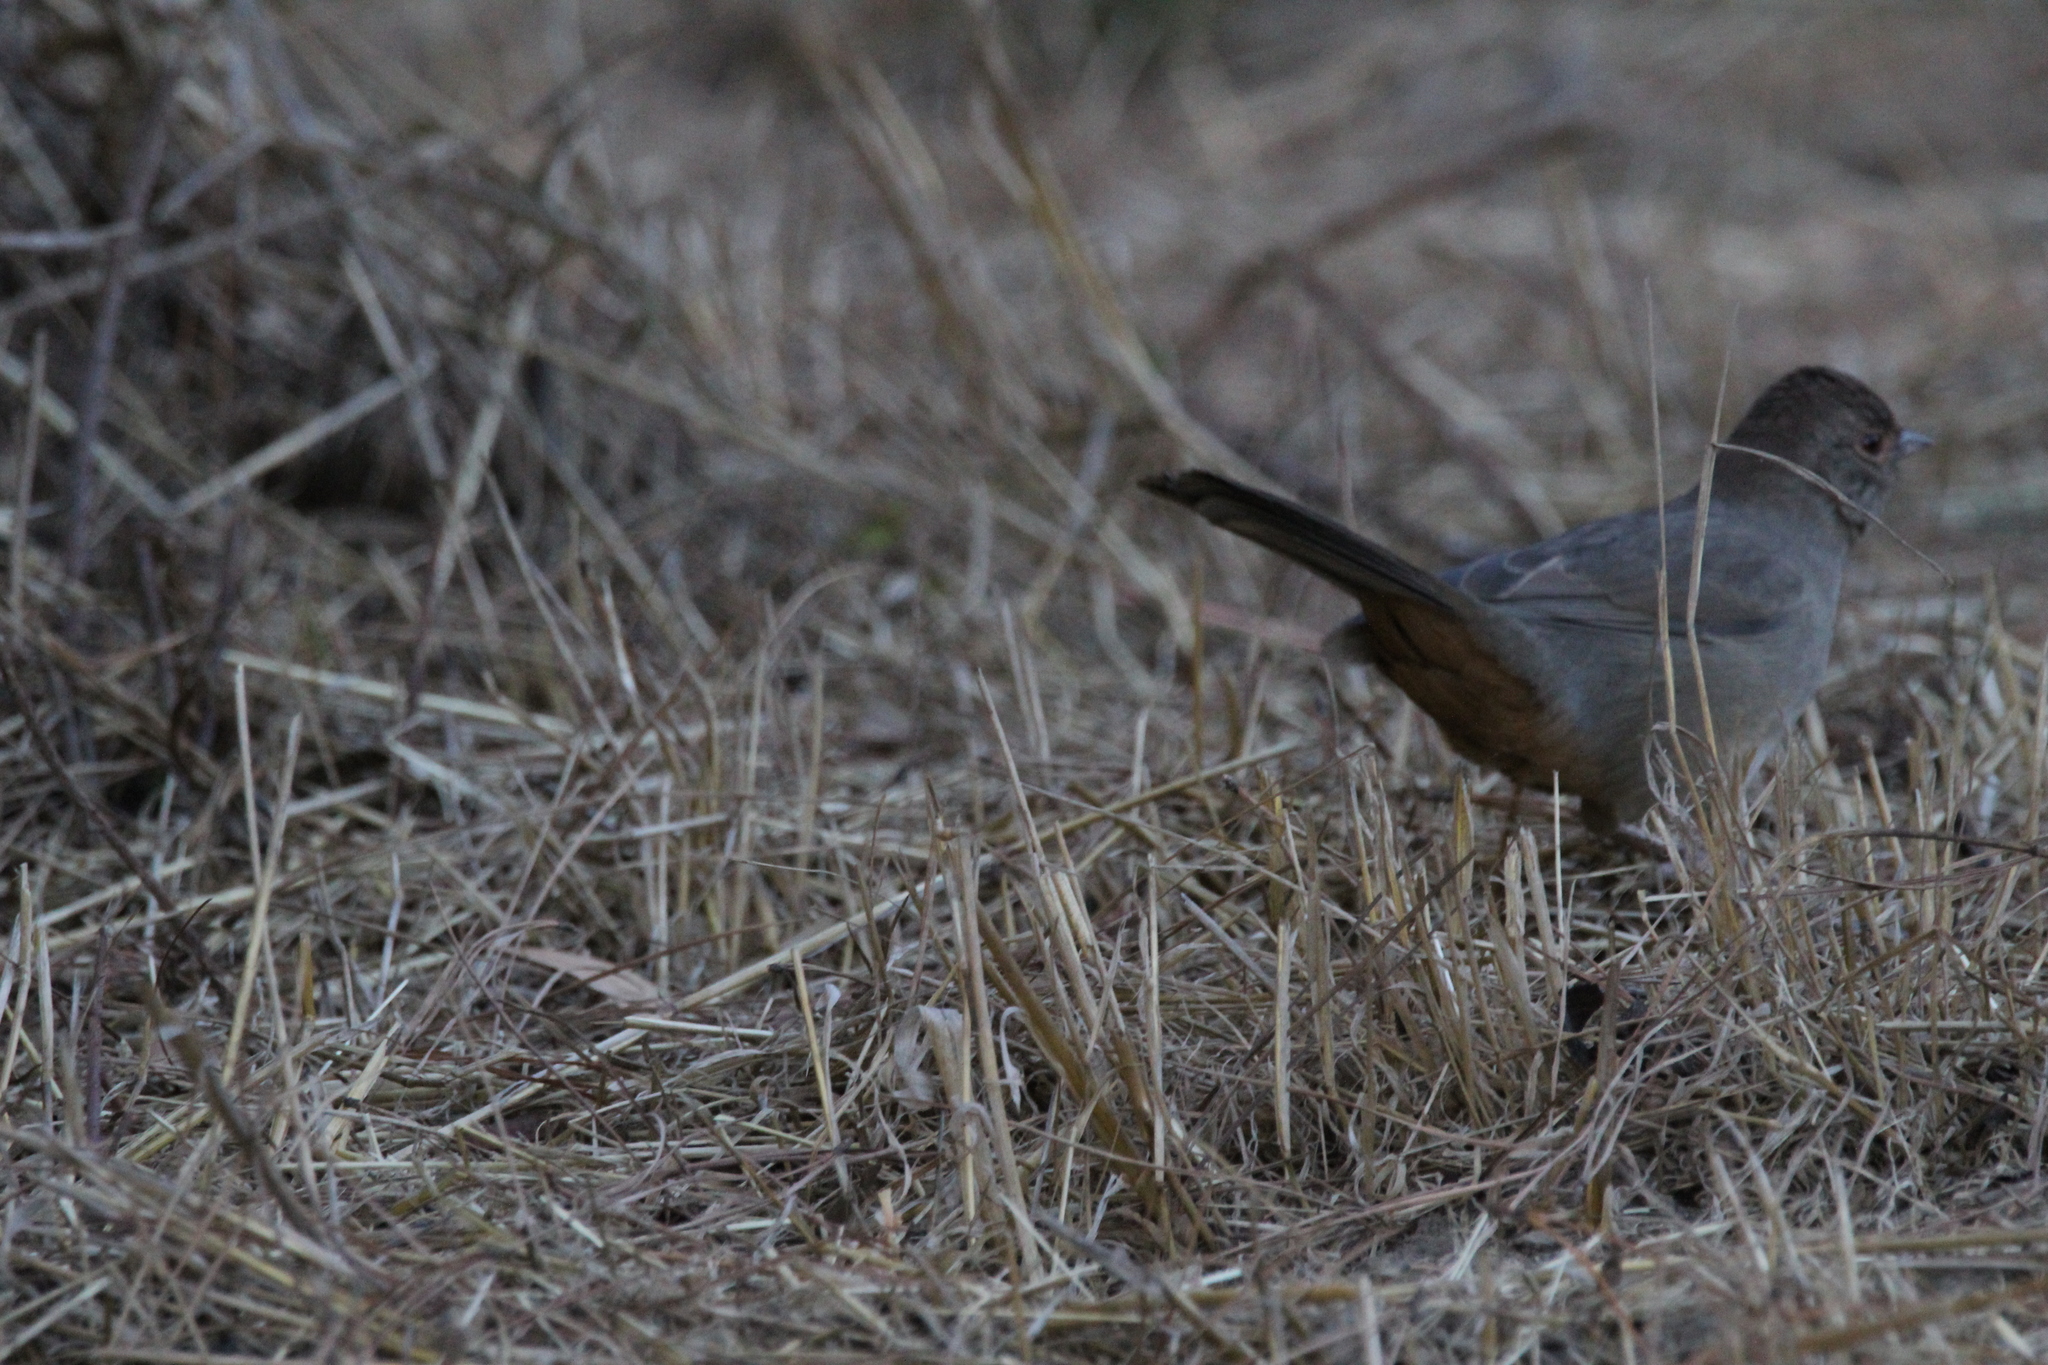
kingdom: Animalia
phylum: Chordata
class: Aves
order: Passeriformes
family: Passerellidae
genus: Melozone
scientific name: Melozone crissalis
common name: California towhee
